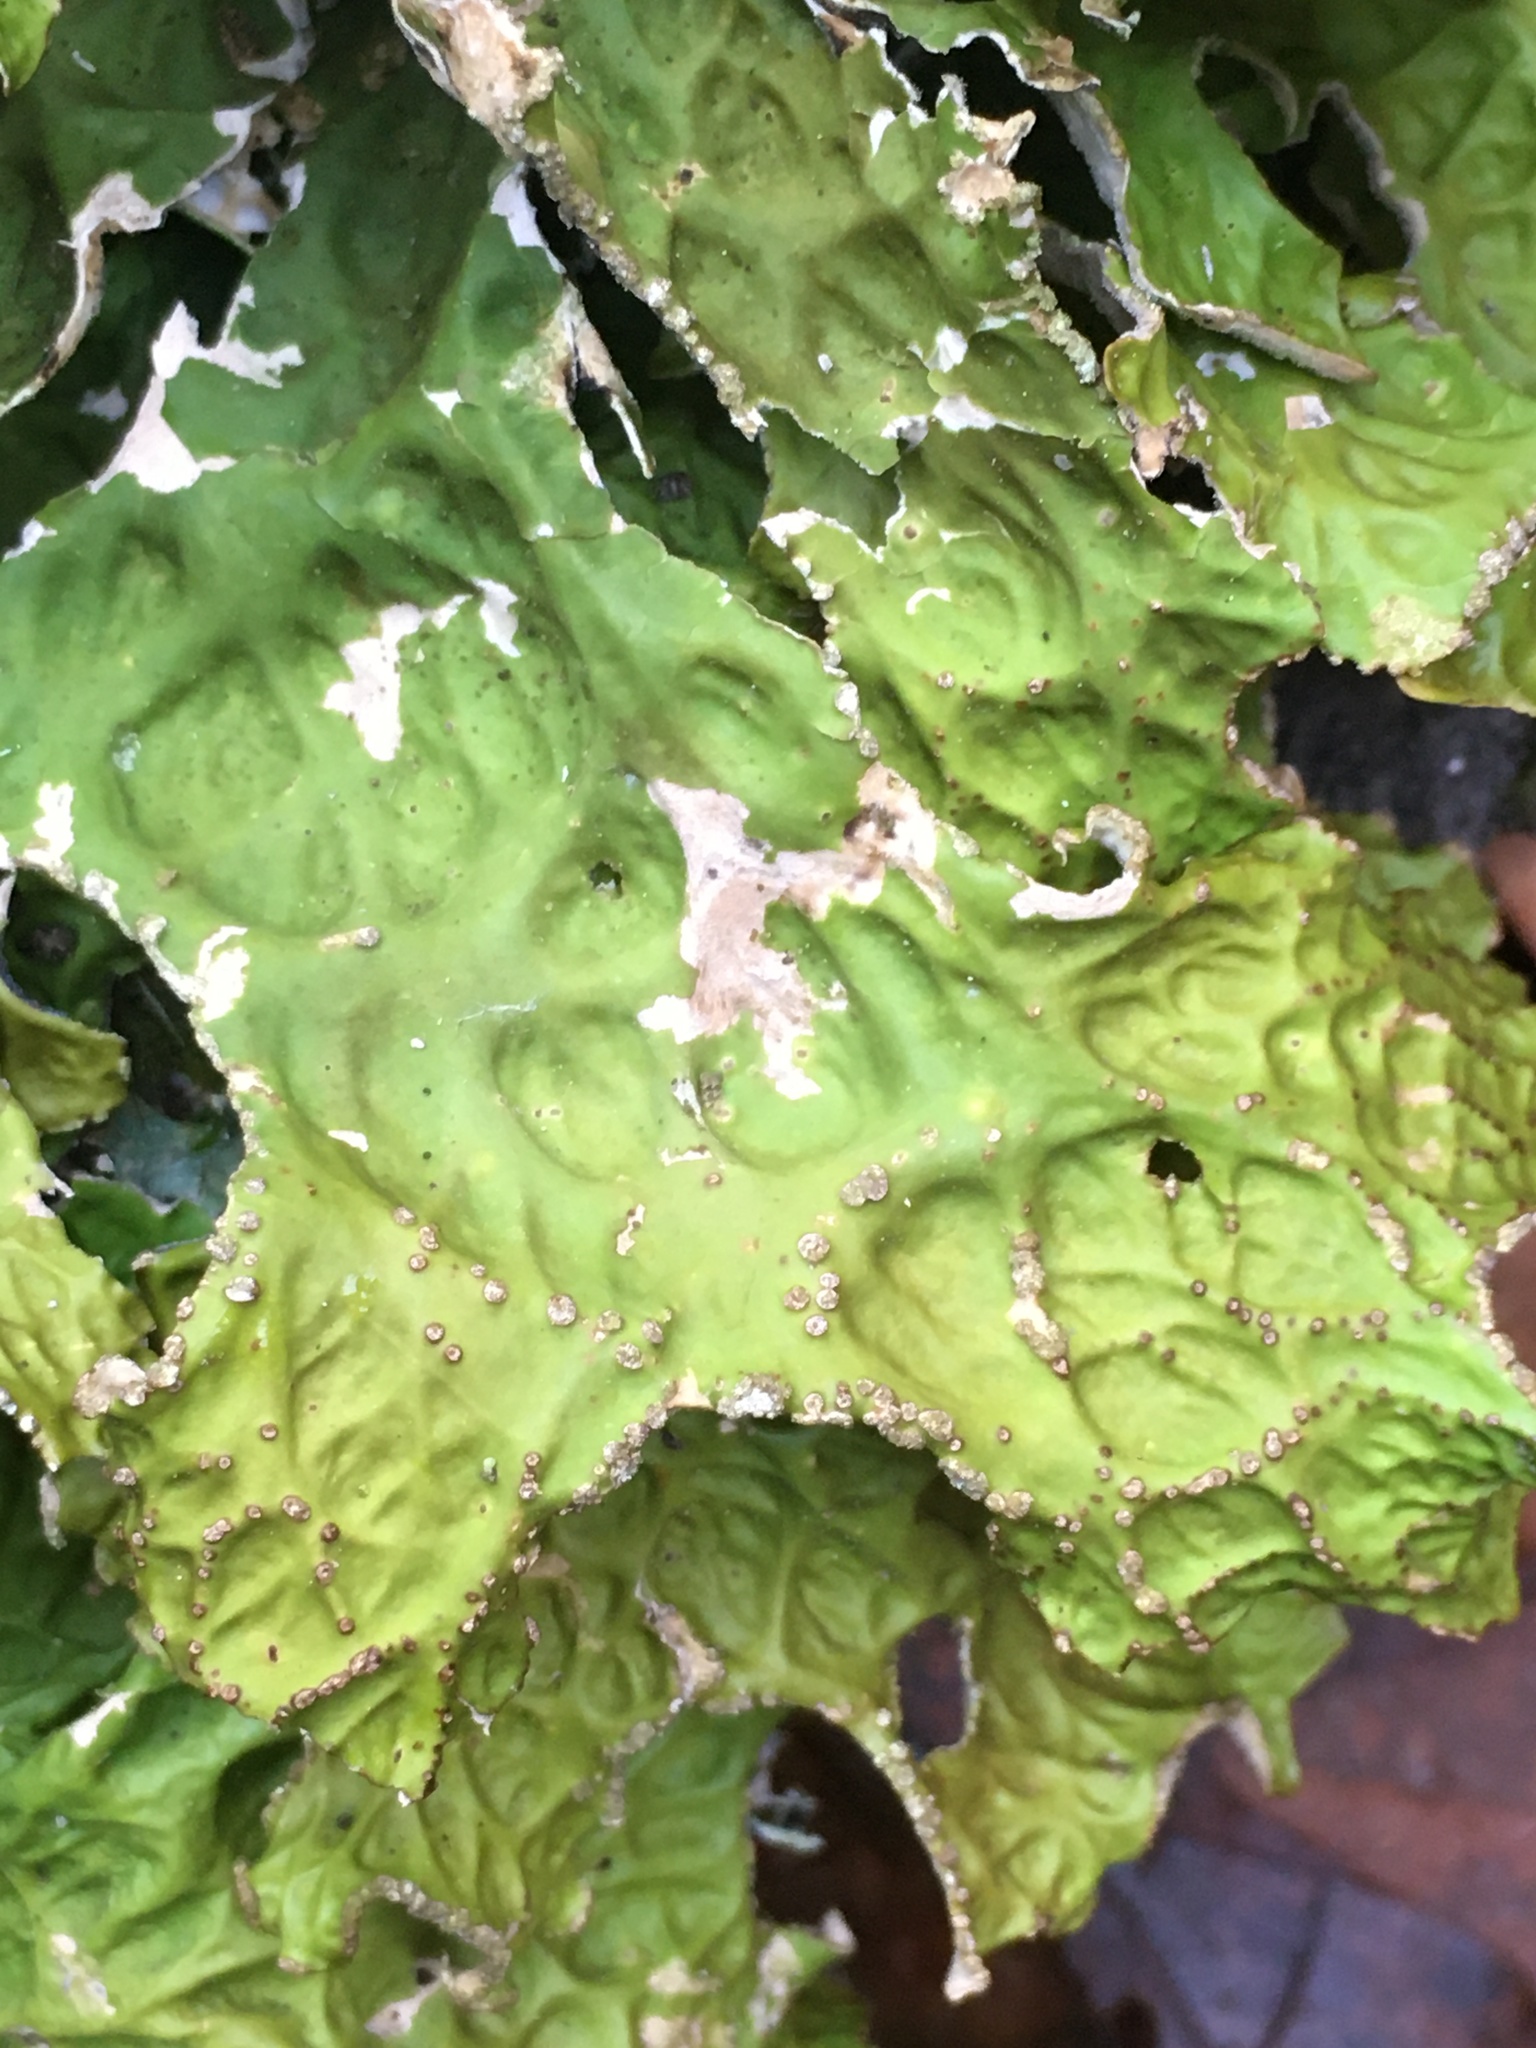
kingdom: Fungi
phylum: Ascomycota
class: Lecanoromycetes
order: Peltigerales
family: Lobariaceae
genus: Lobaria
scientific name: Lobaria pulmonaria
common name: Lungwort
